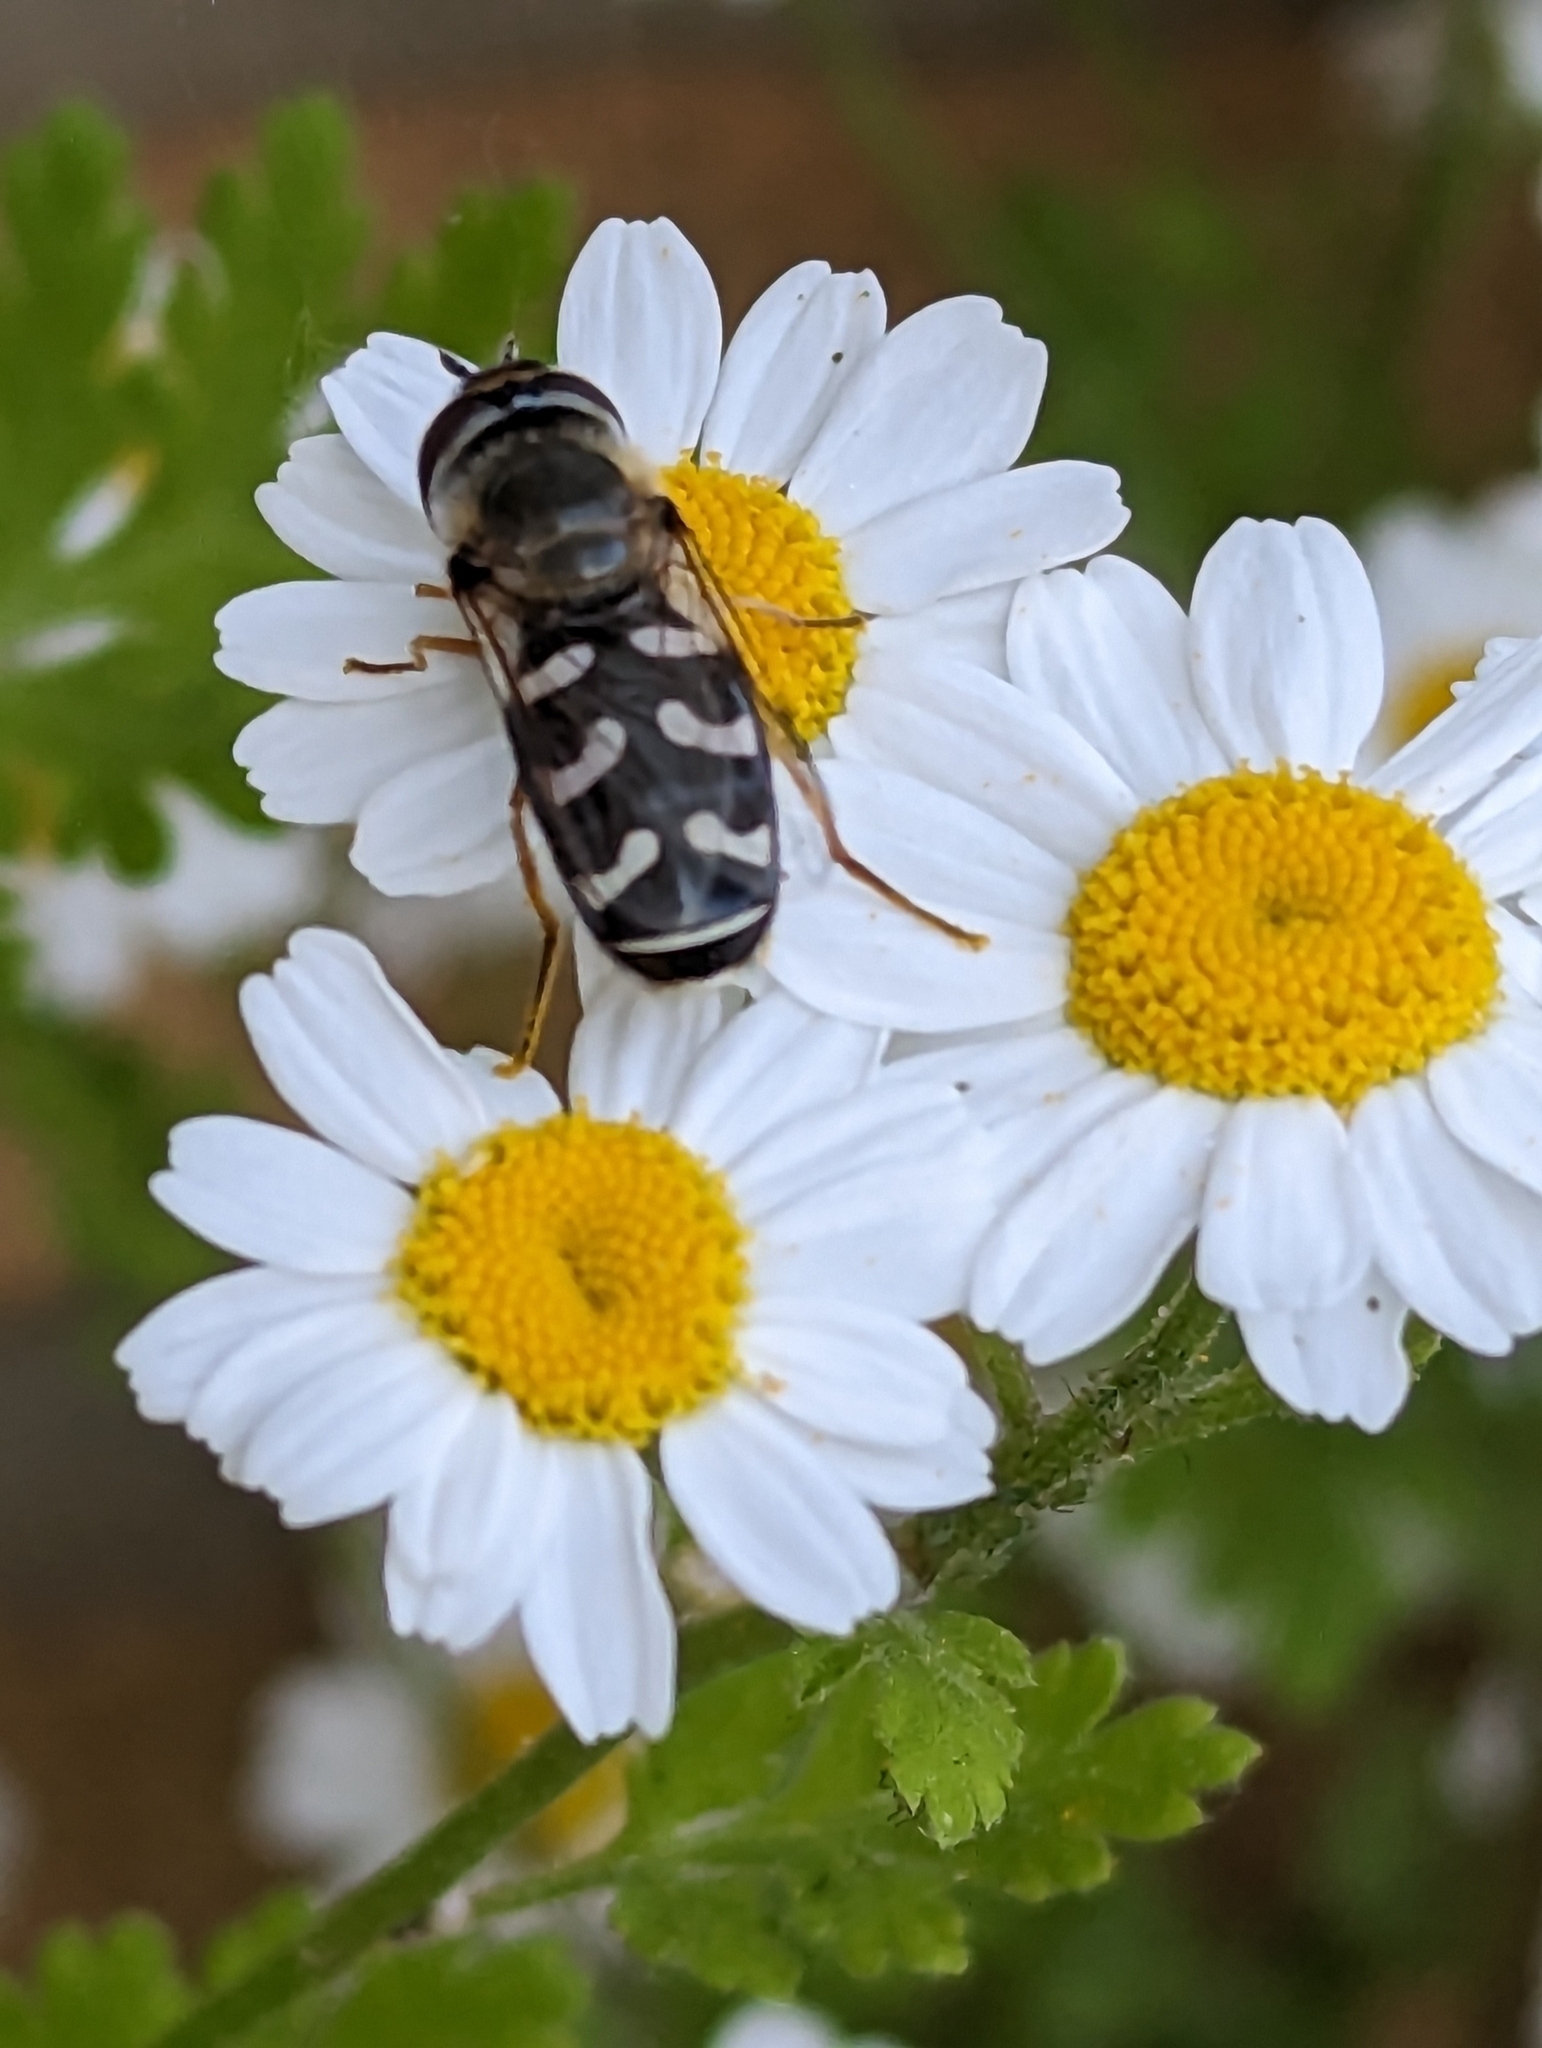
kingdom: Animalia
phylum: Arthropoda
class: Insecta
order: Diptera
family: Syrphidae
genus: Scaeva
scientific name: Scaeva pyrastri
